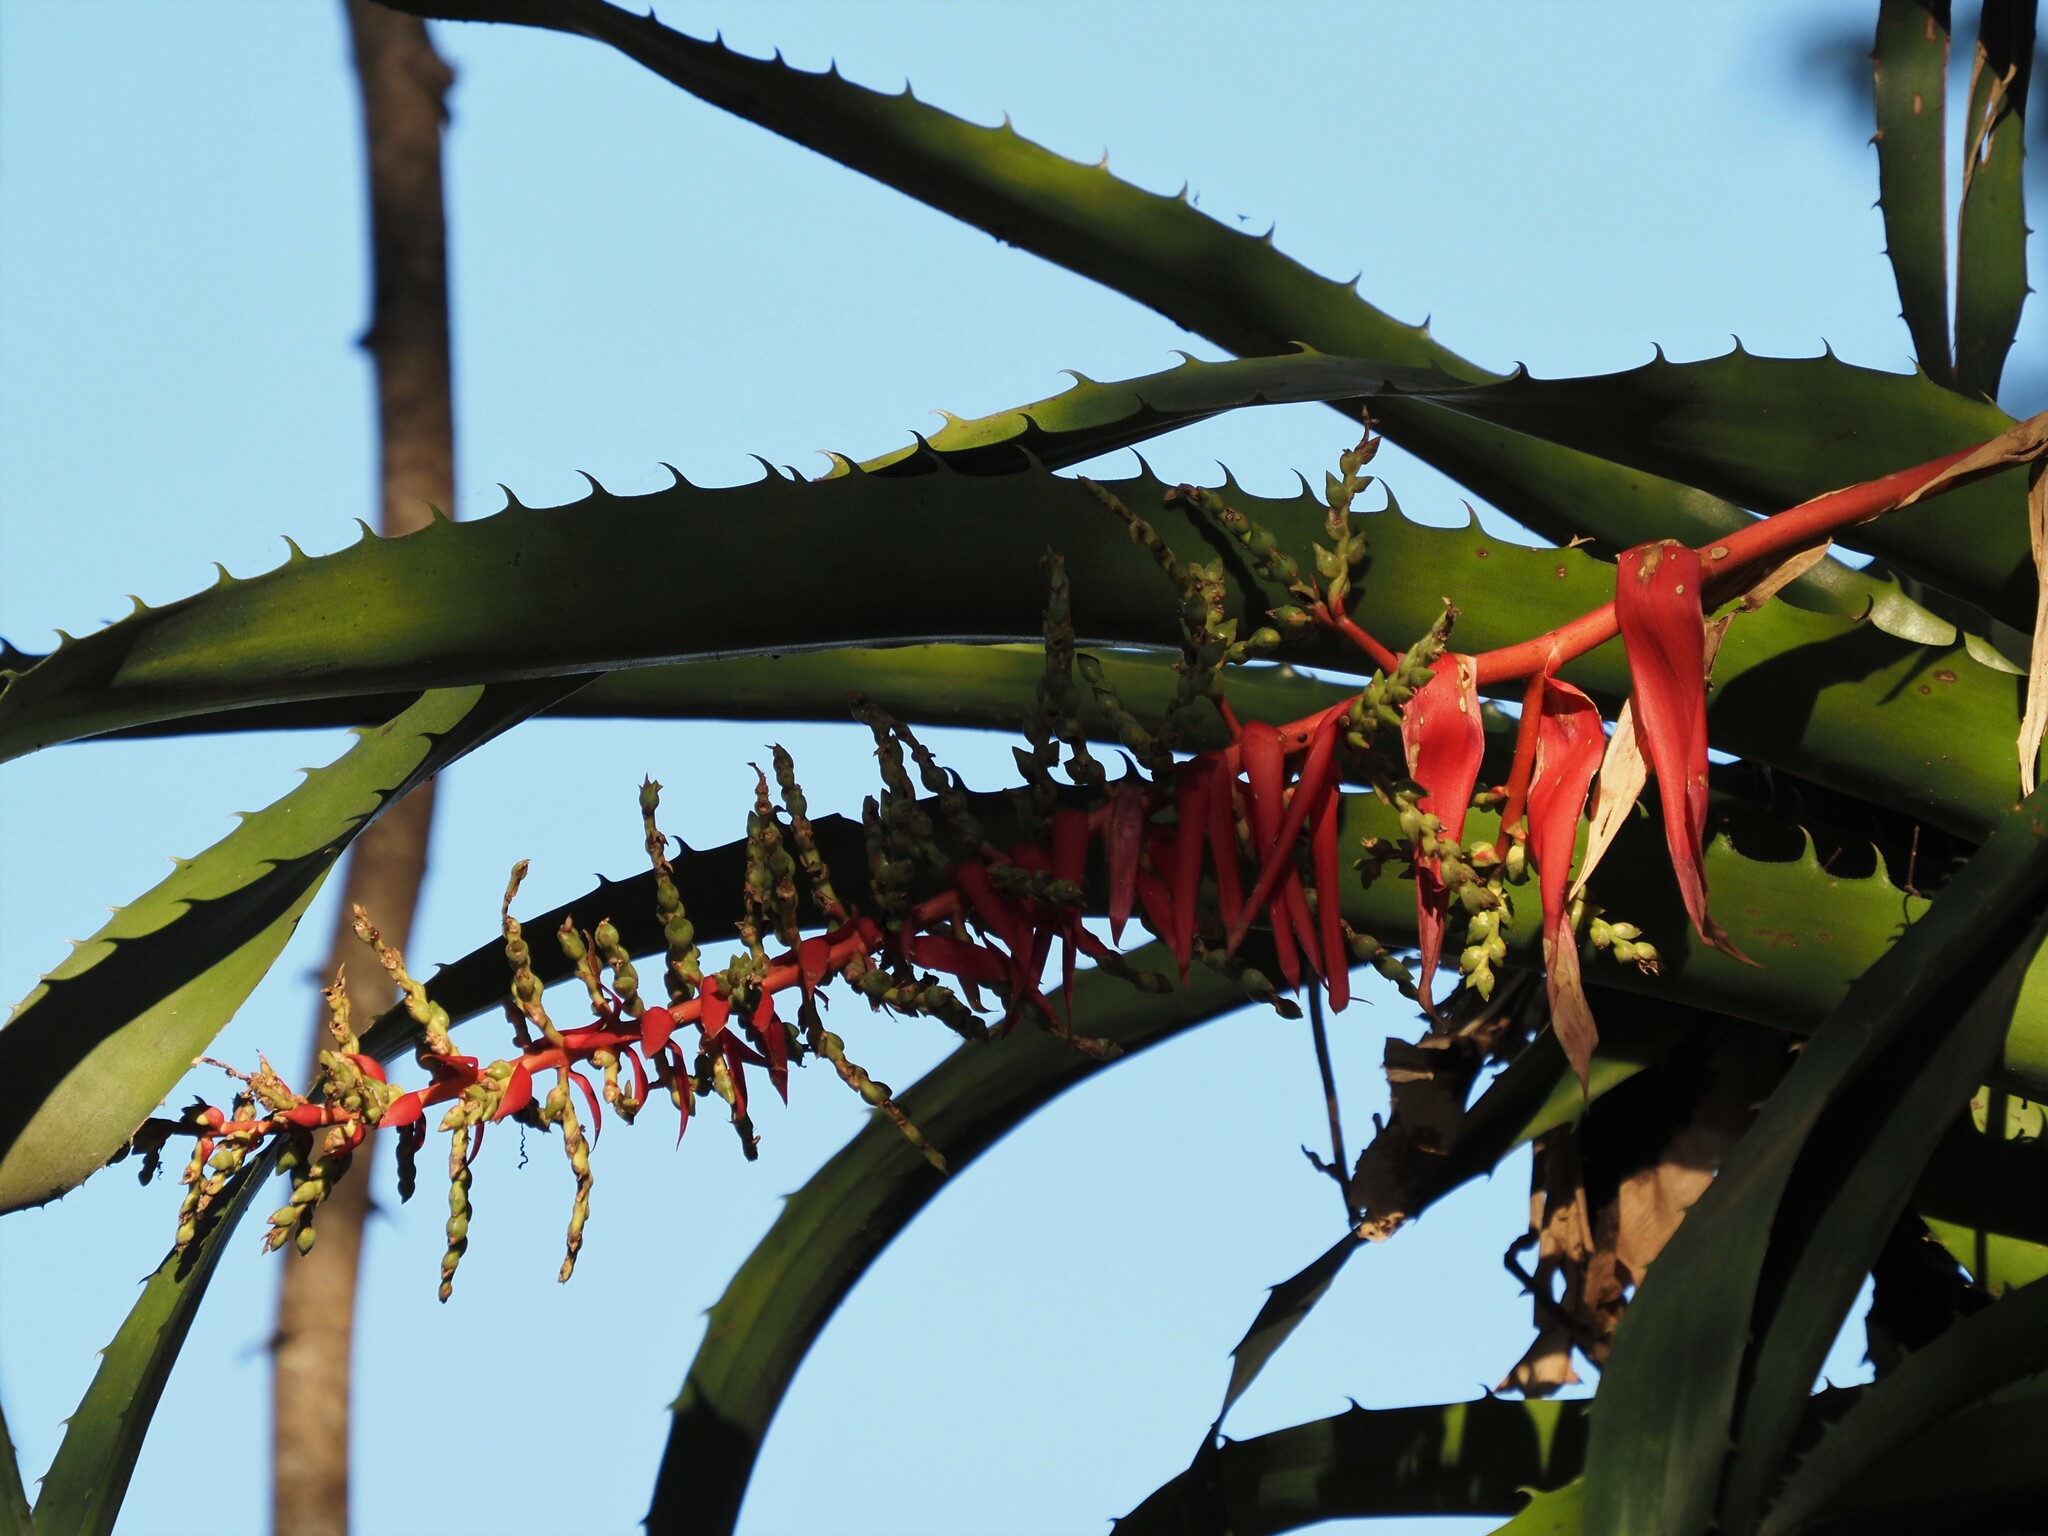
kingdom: Plantae
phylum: Tracheophyta
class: Liliopsida
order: Poales
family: Bromeliaceae
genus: Aechmea
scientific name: Aechmea bracteata
